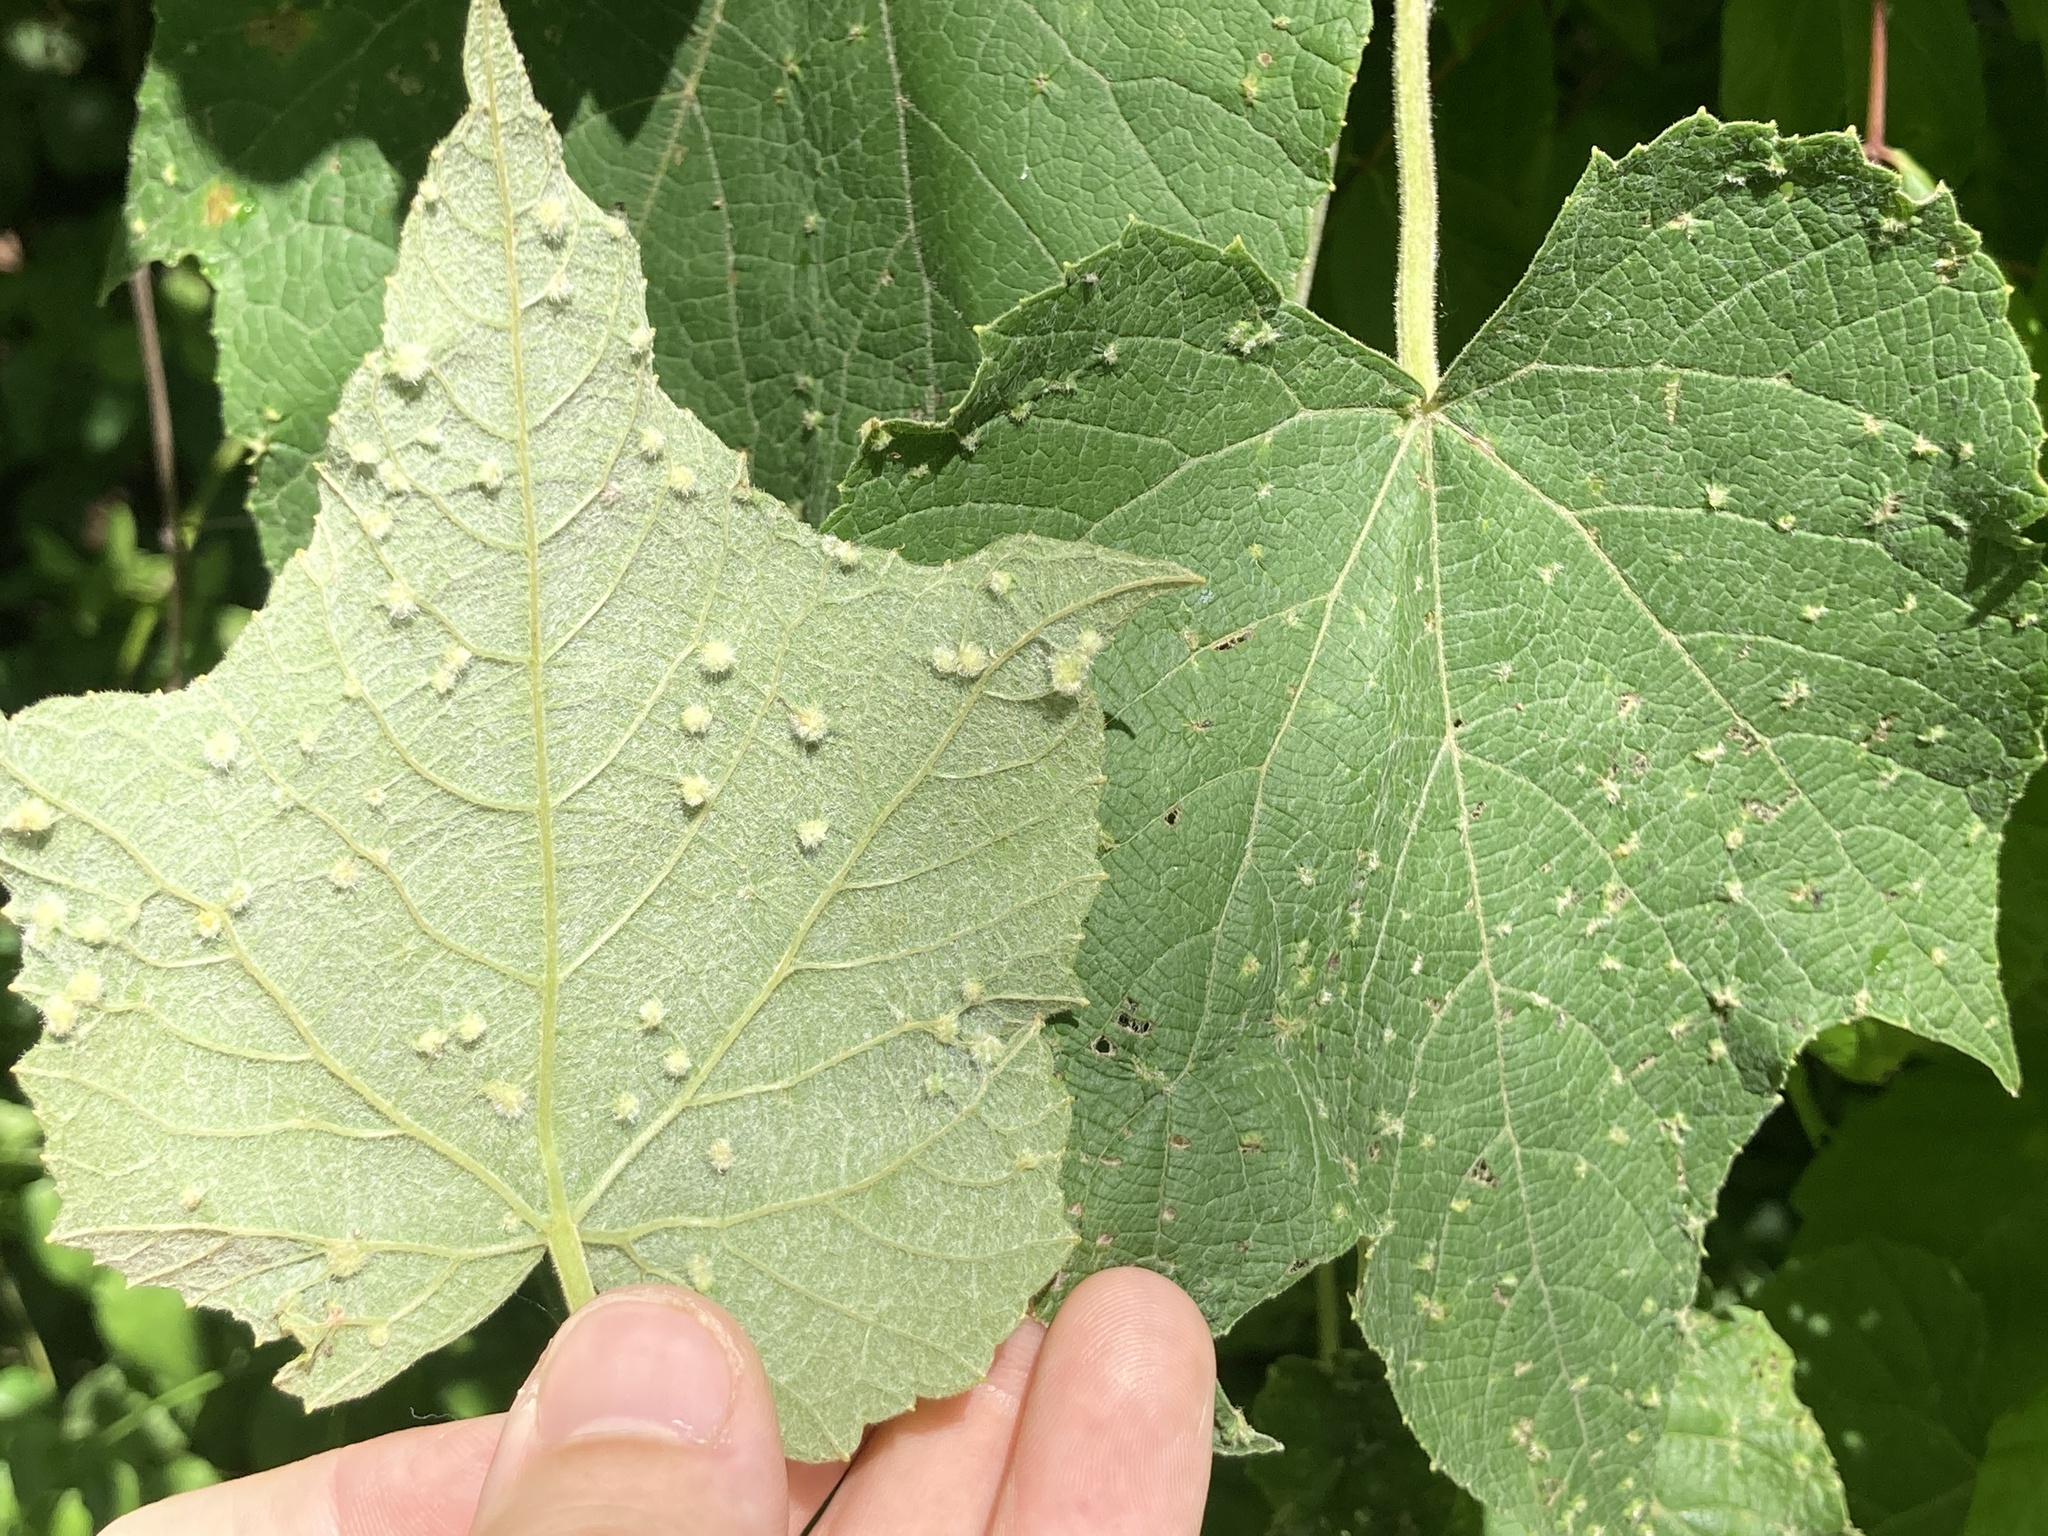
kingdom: Animalia
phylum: Arthropoda
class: Insecta
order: Hemiptera
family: Phylloxeridae
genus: Daktulosphaira
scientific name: Daktulosphaira vitifoliae
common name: Grape phylloxera
